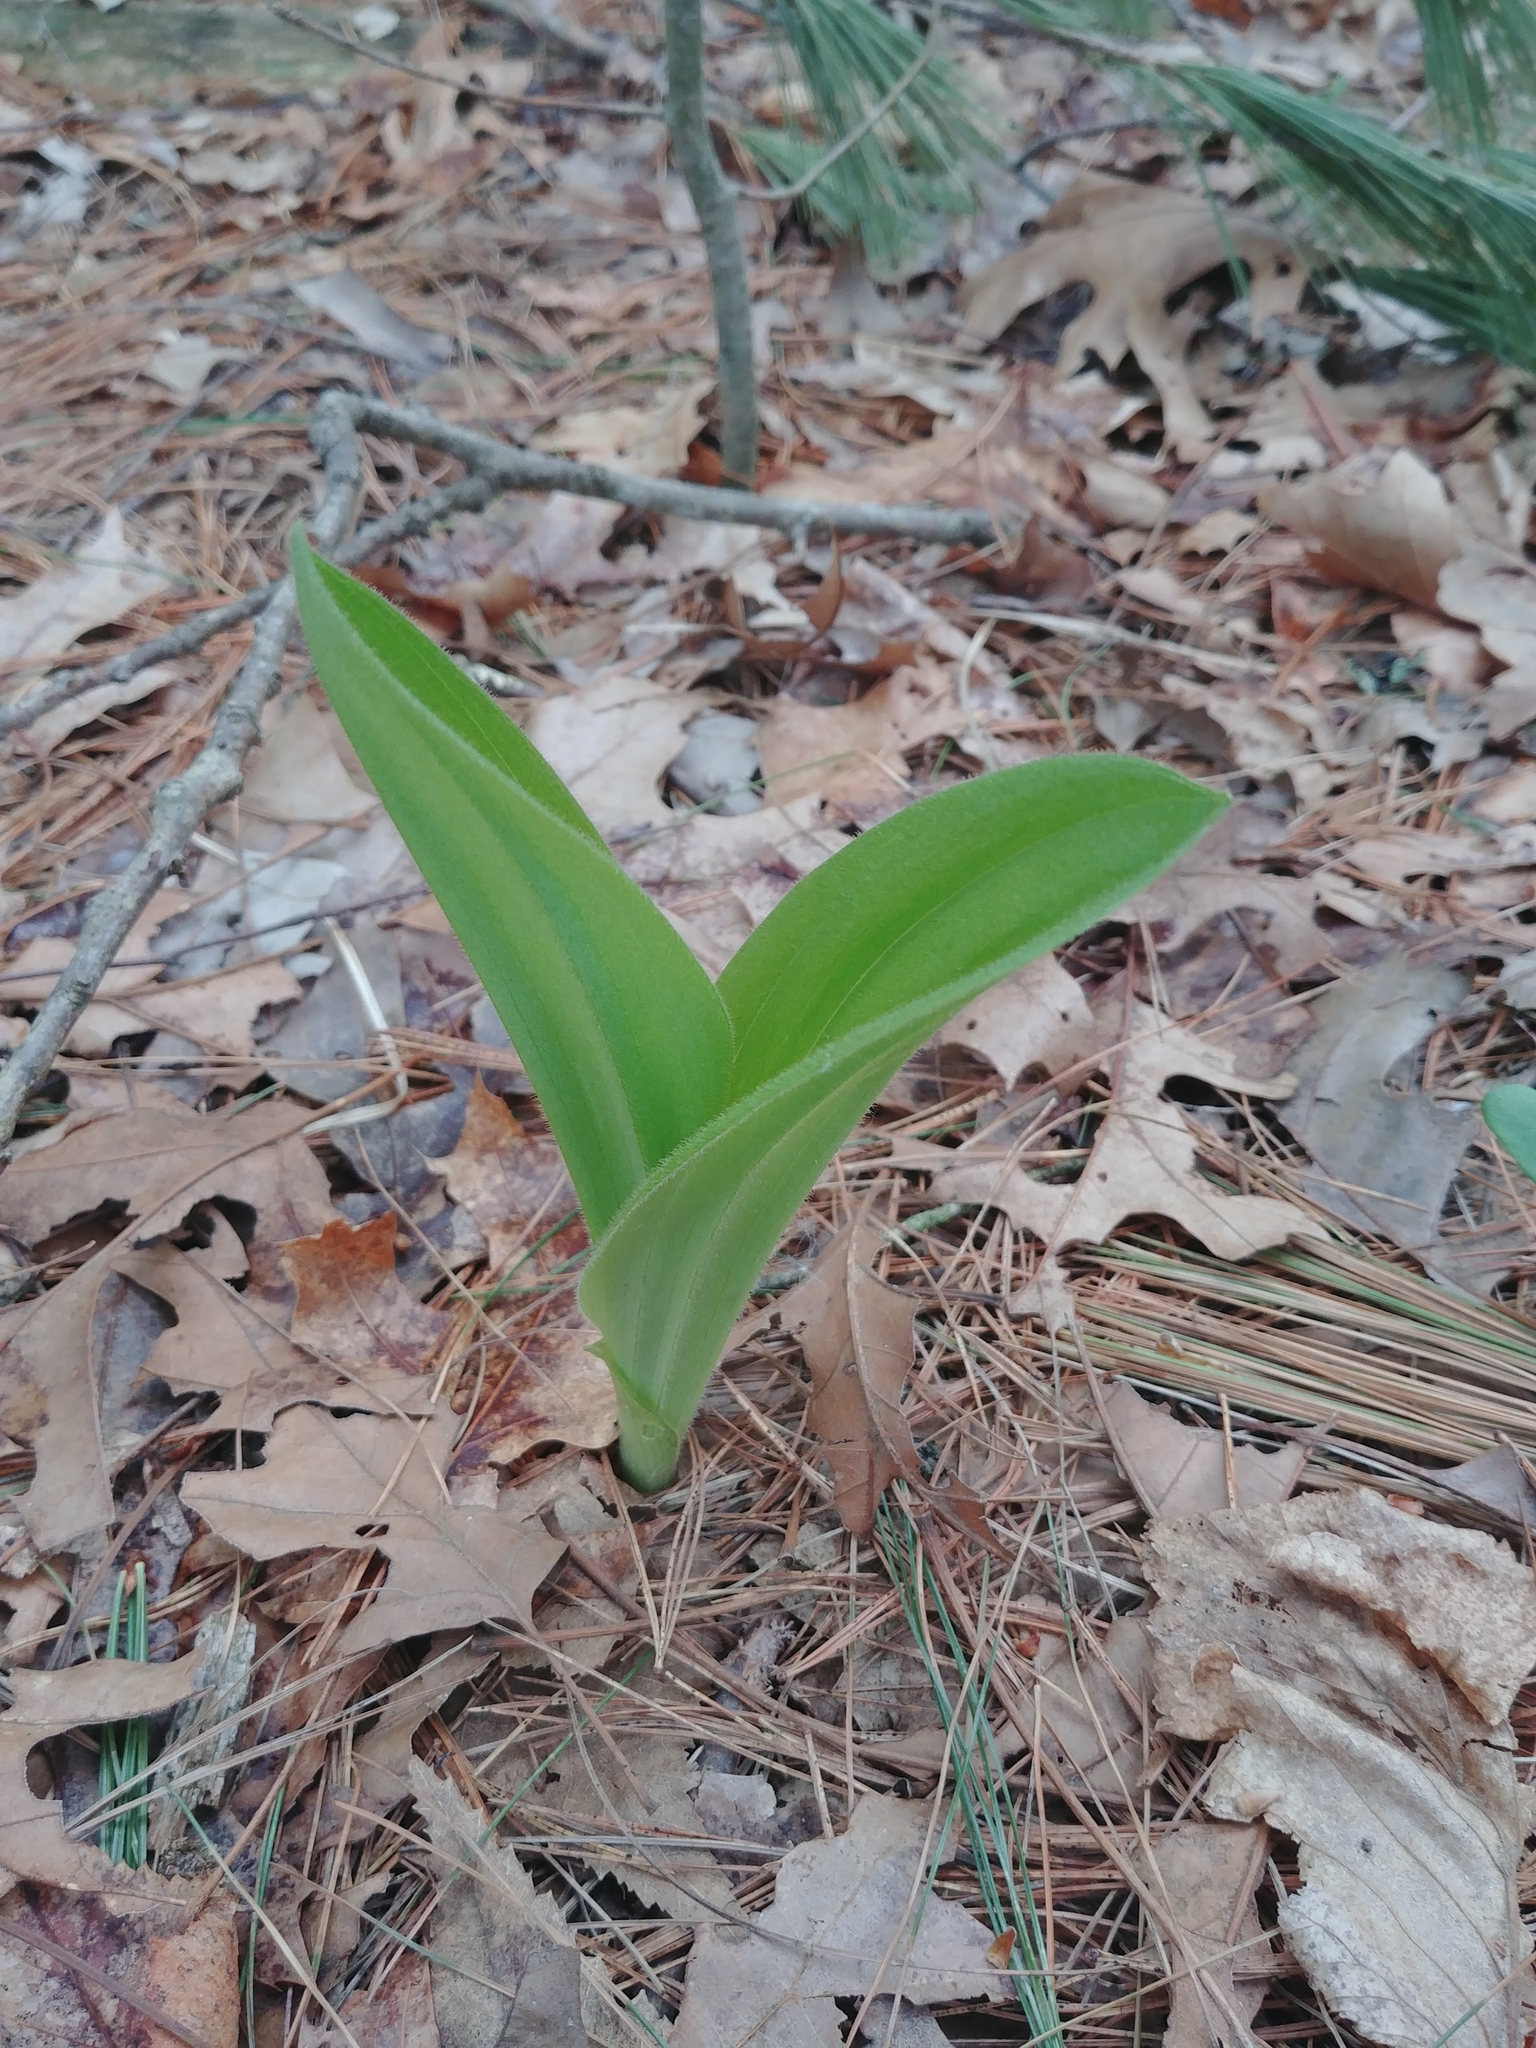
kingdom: Plantae
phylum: Tracheophyta
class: Liliopsida
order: Asparagales
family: Orchidaceae
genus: Cypripedium
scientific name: Cypripedium acaule
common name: Pink lady's-slipper
